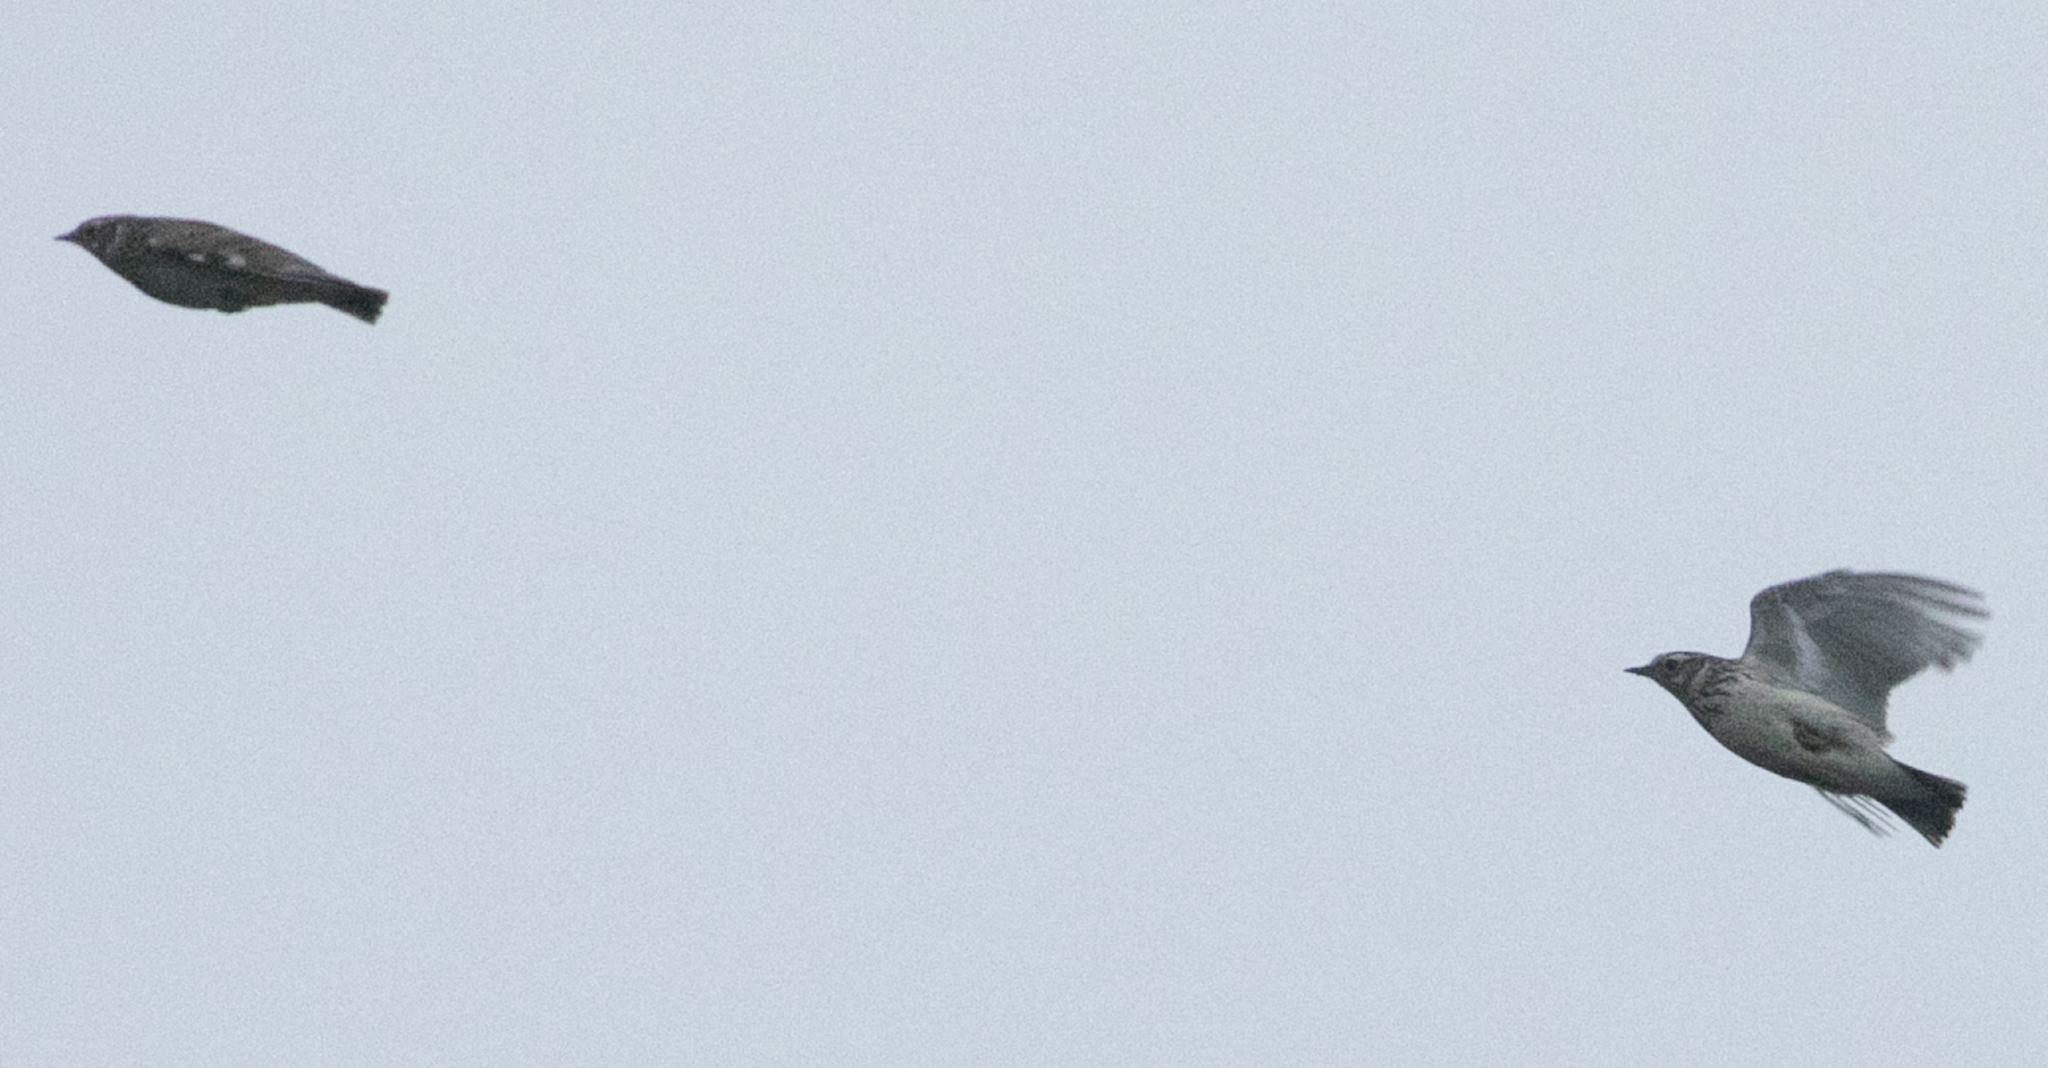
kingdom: Animalia
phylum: Chordata
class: Aves
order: Passeriformes
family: Alaudidae
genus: Lullula
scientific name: Lullula arborea
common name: Woodlark
